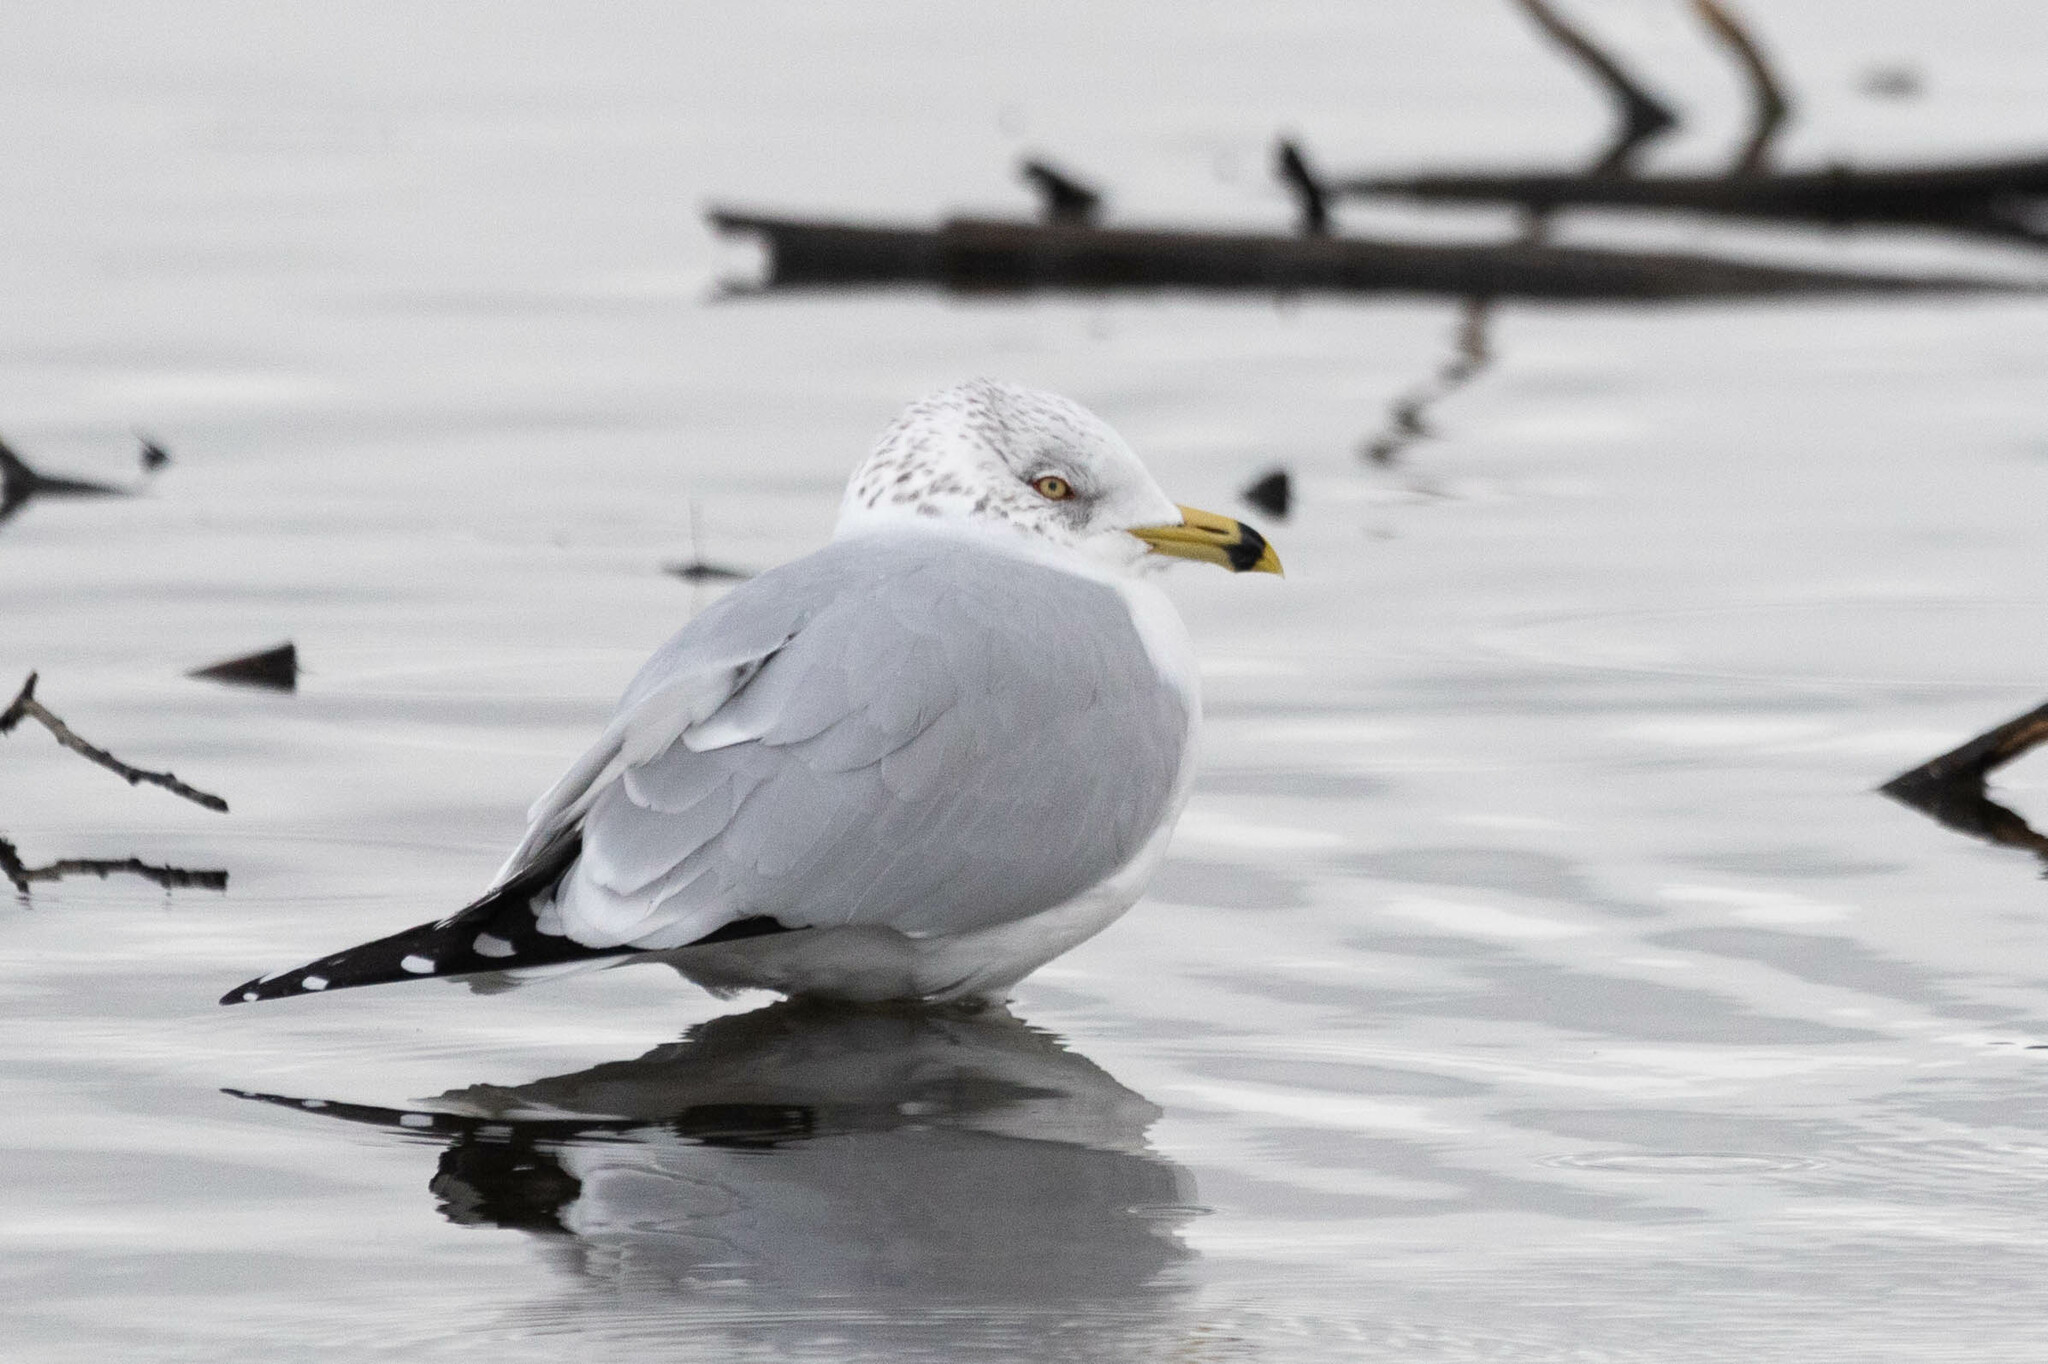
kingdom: Animalia
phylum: Chordata
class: Aves
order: Charadriiformes
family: Laridae
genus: Larus
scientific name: Larus delawarensis
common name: Ring-billed gull
